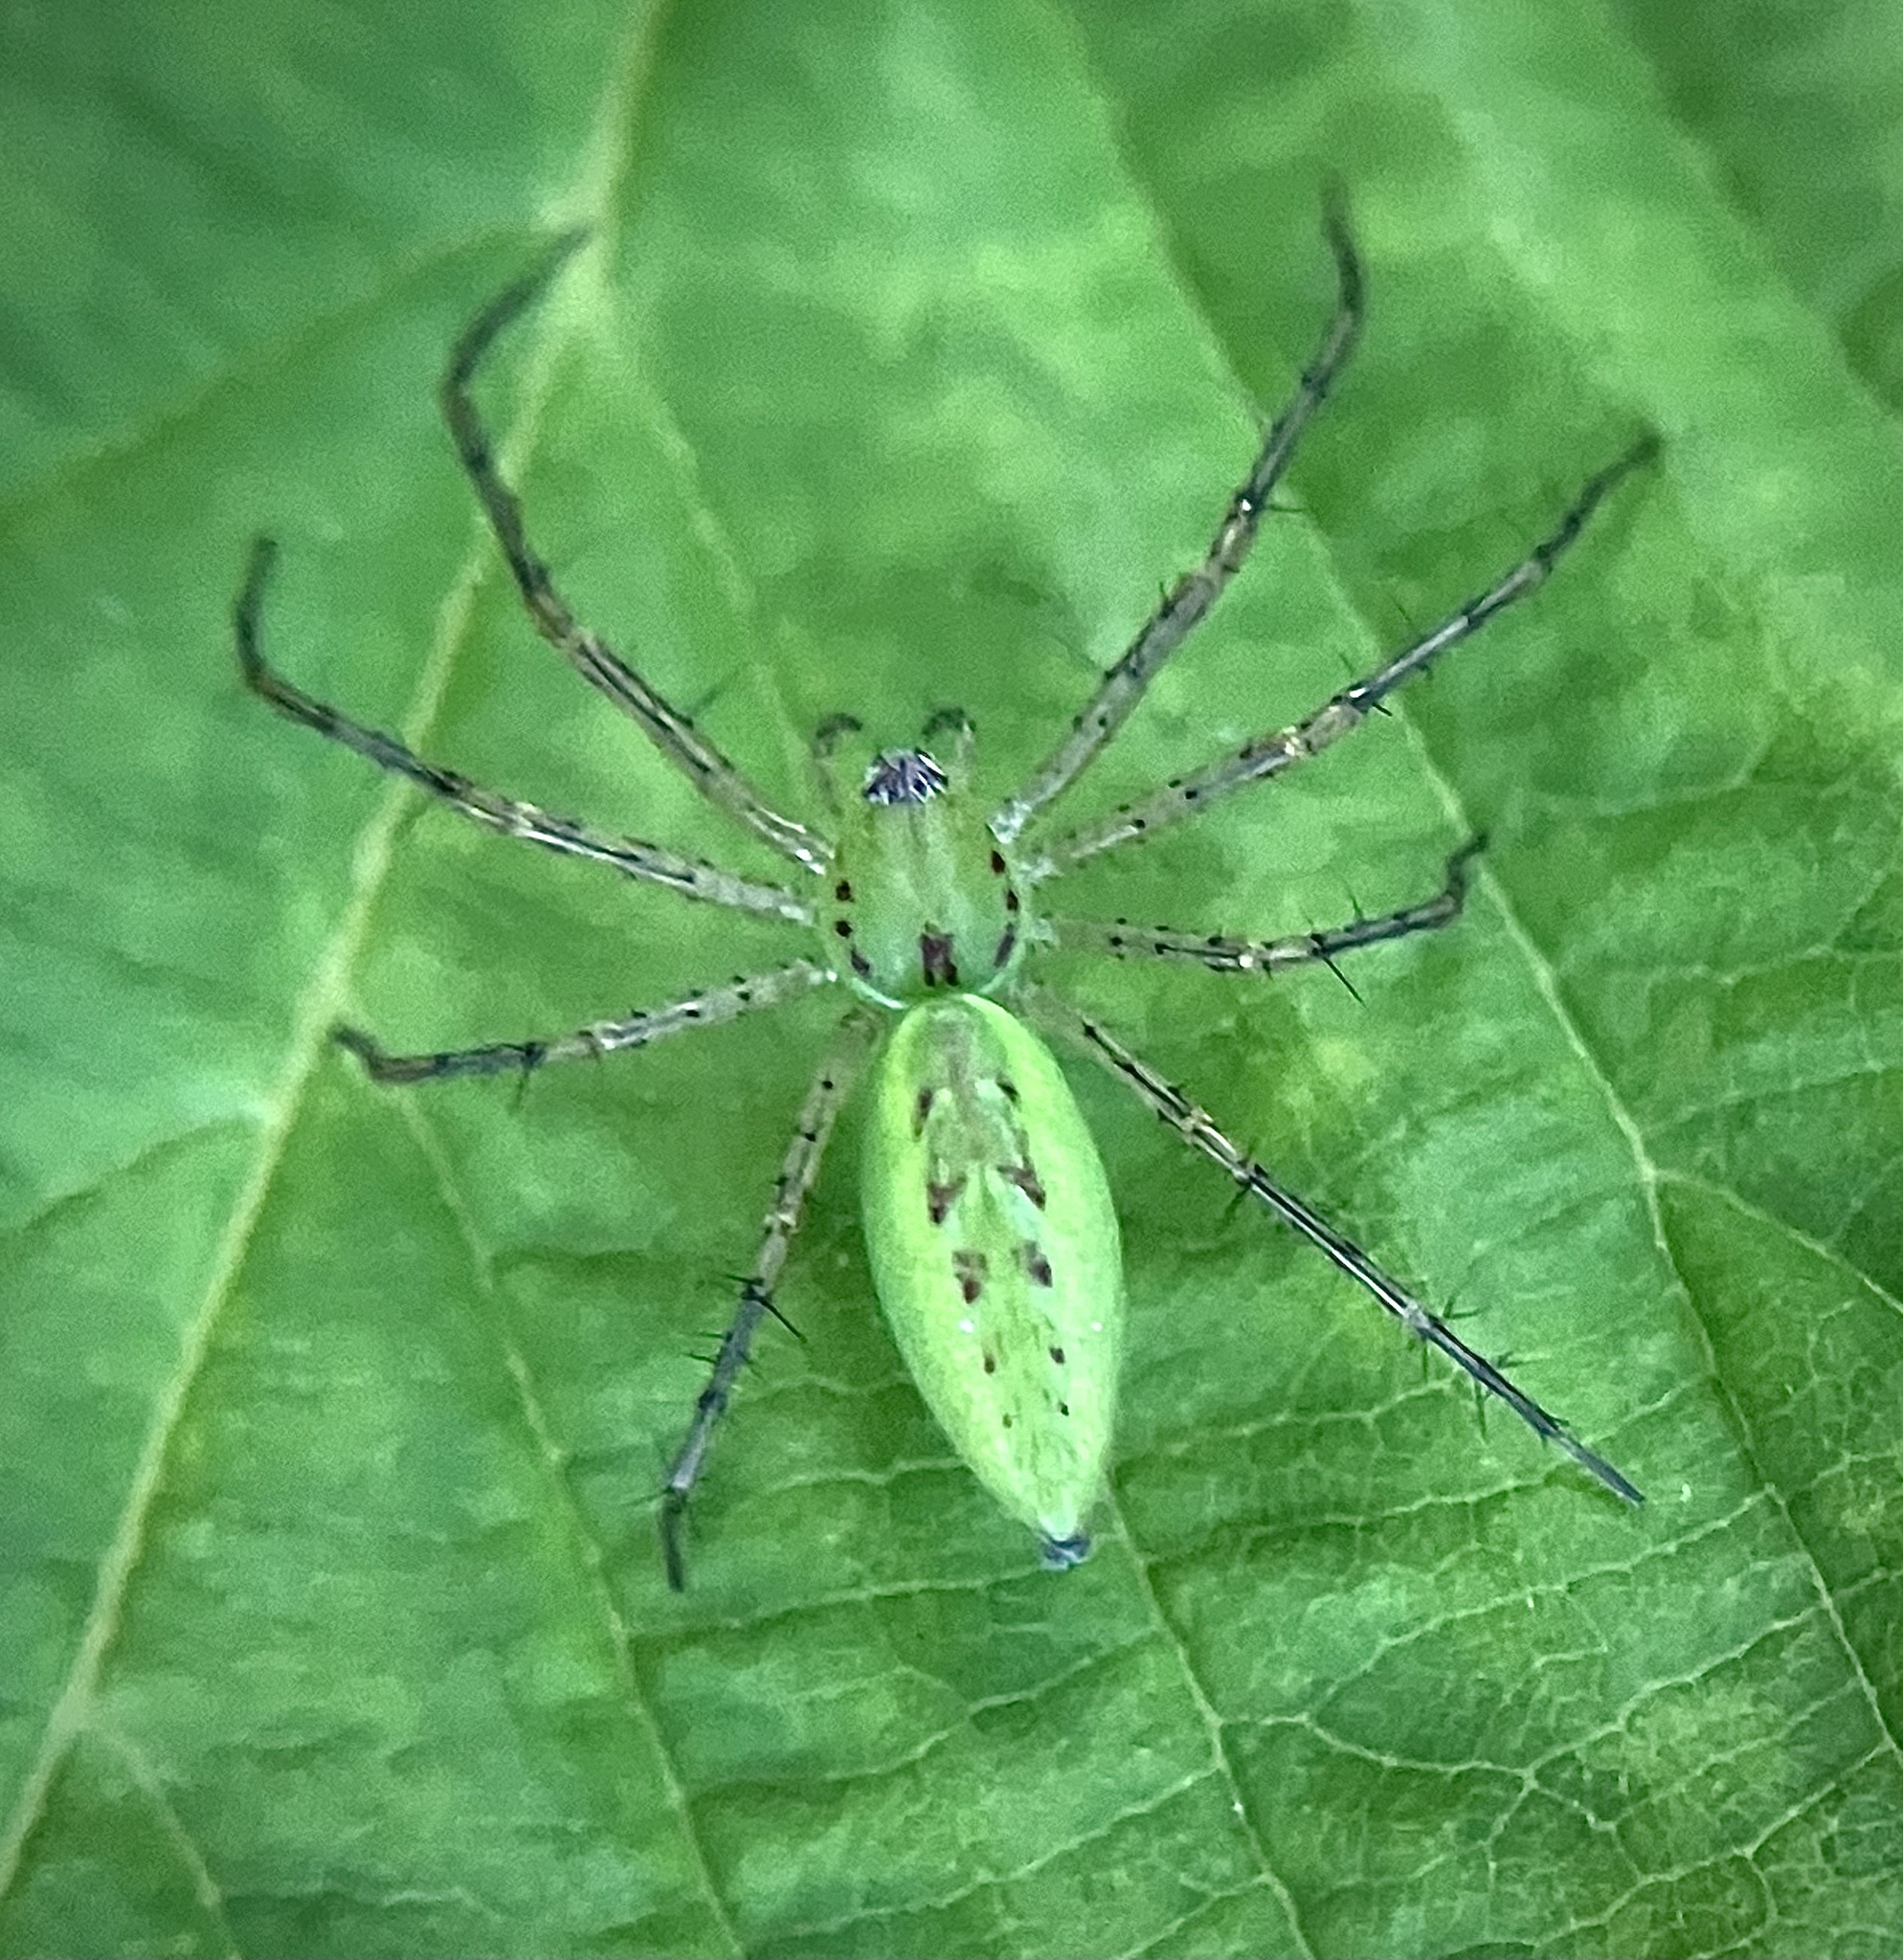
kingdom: Animalia
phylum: Arthropoda
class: Arachnida
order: Araneae
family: Oxyopidae
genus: Peucetia
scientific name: Peucetia viridans
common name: Lynx spiders
